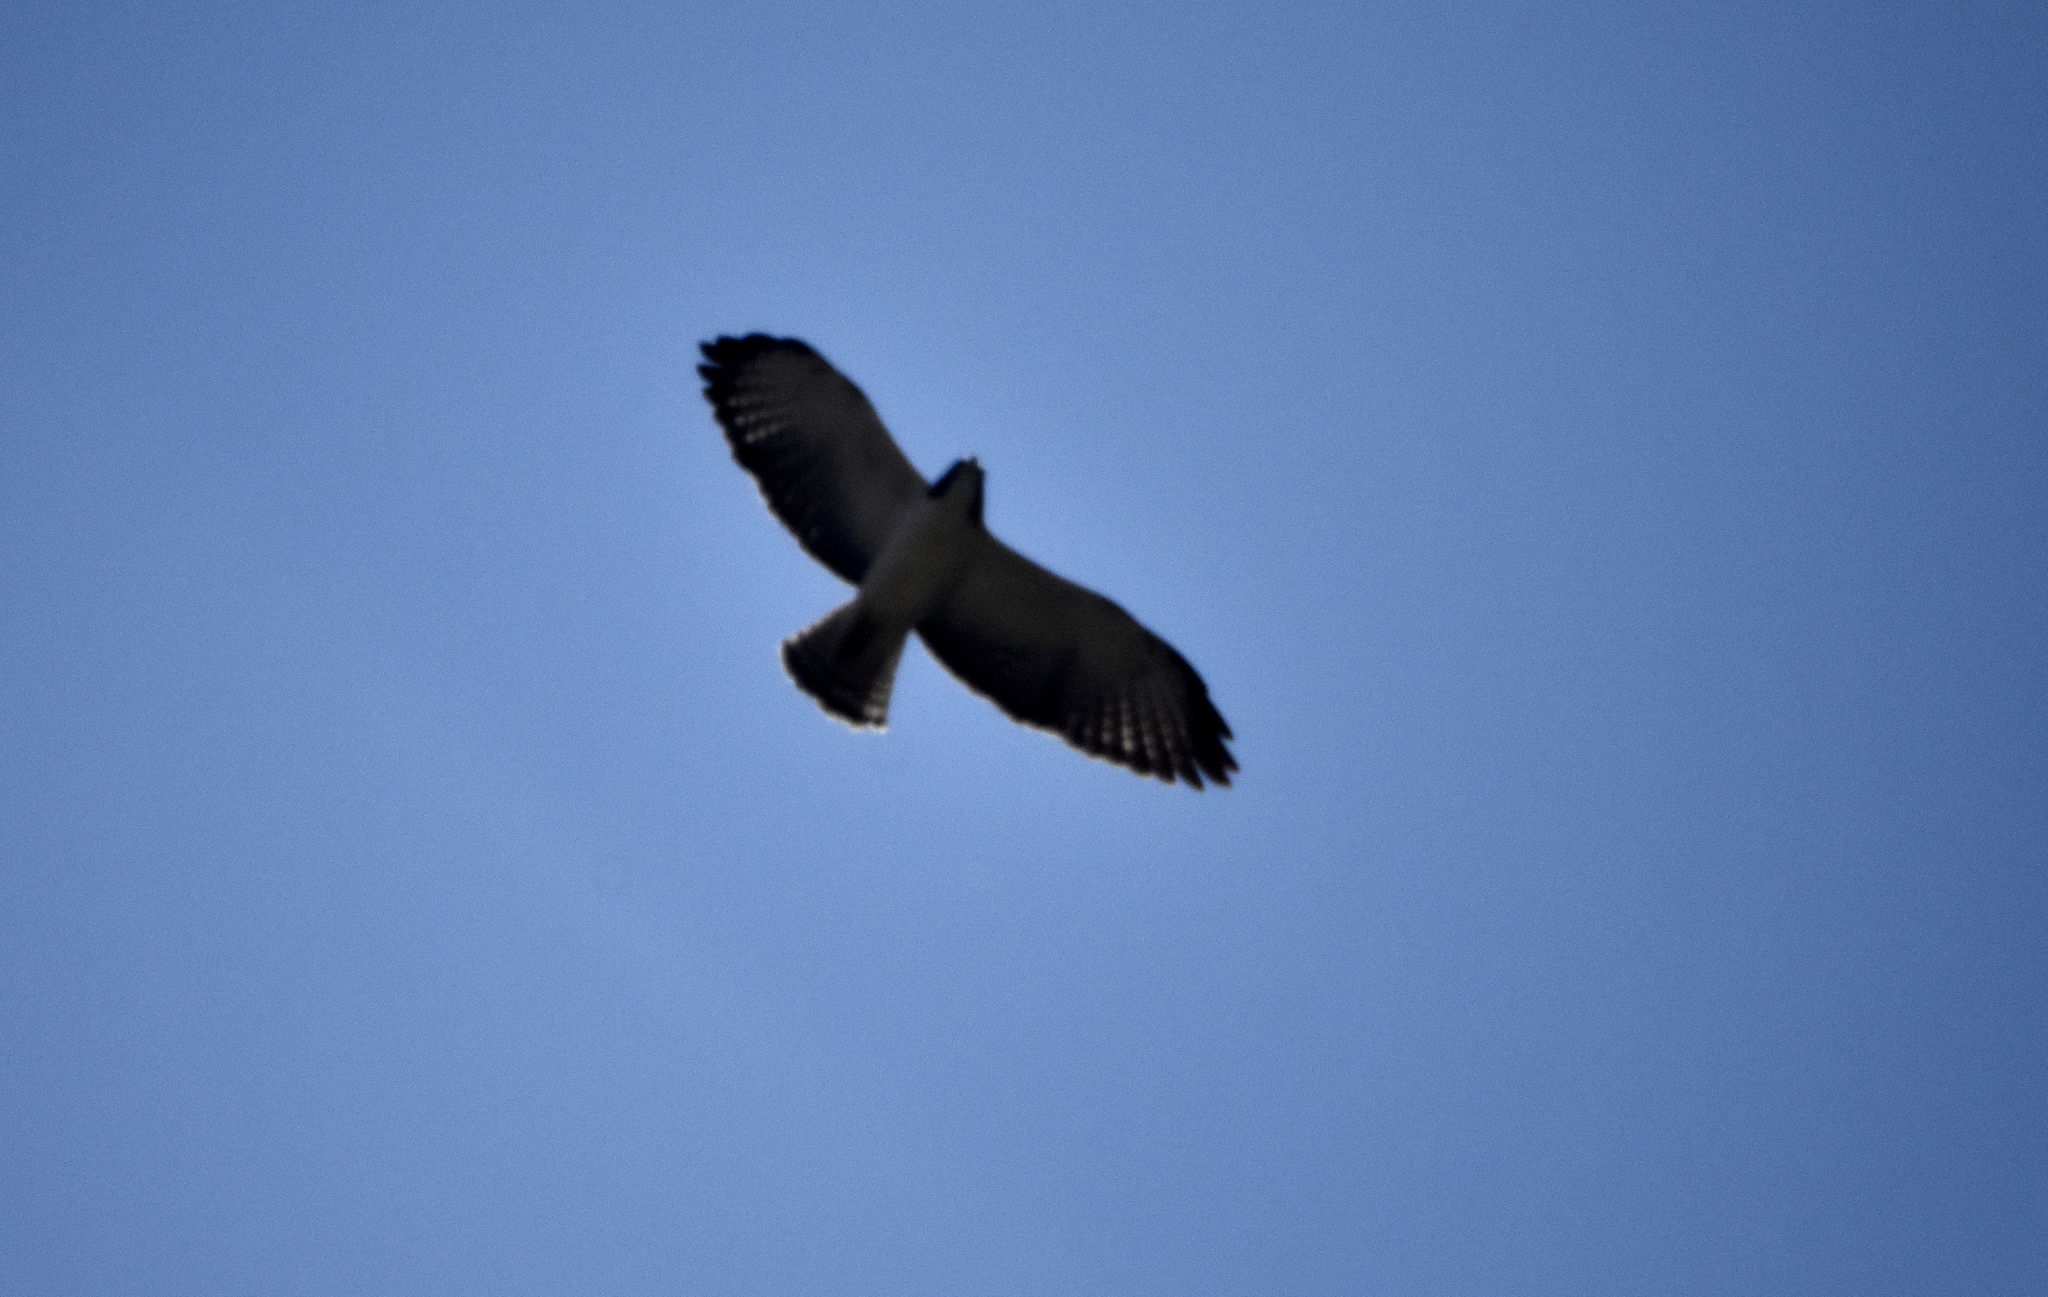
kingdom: Animalia
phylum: Chordata
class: Aves
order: Accipitriformes
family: Accipitridae
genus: Buteo
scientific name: Buteo brachyurus
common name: Short-tailed hawk
